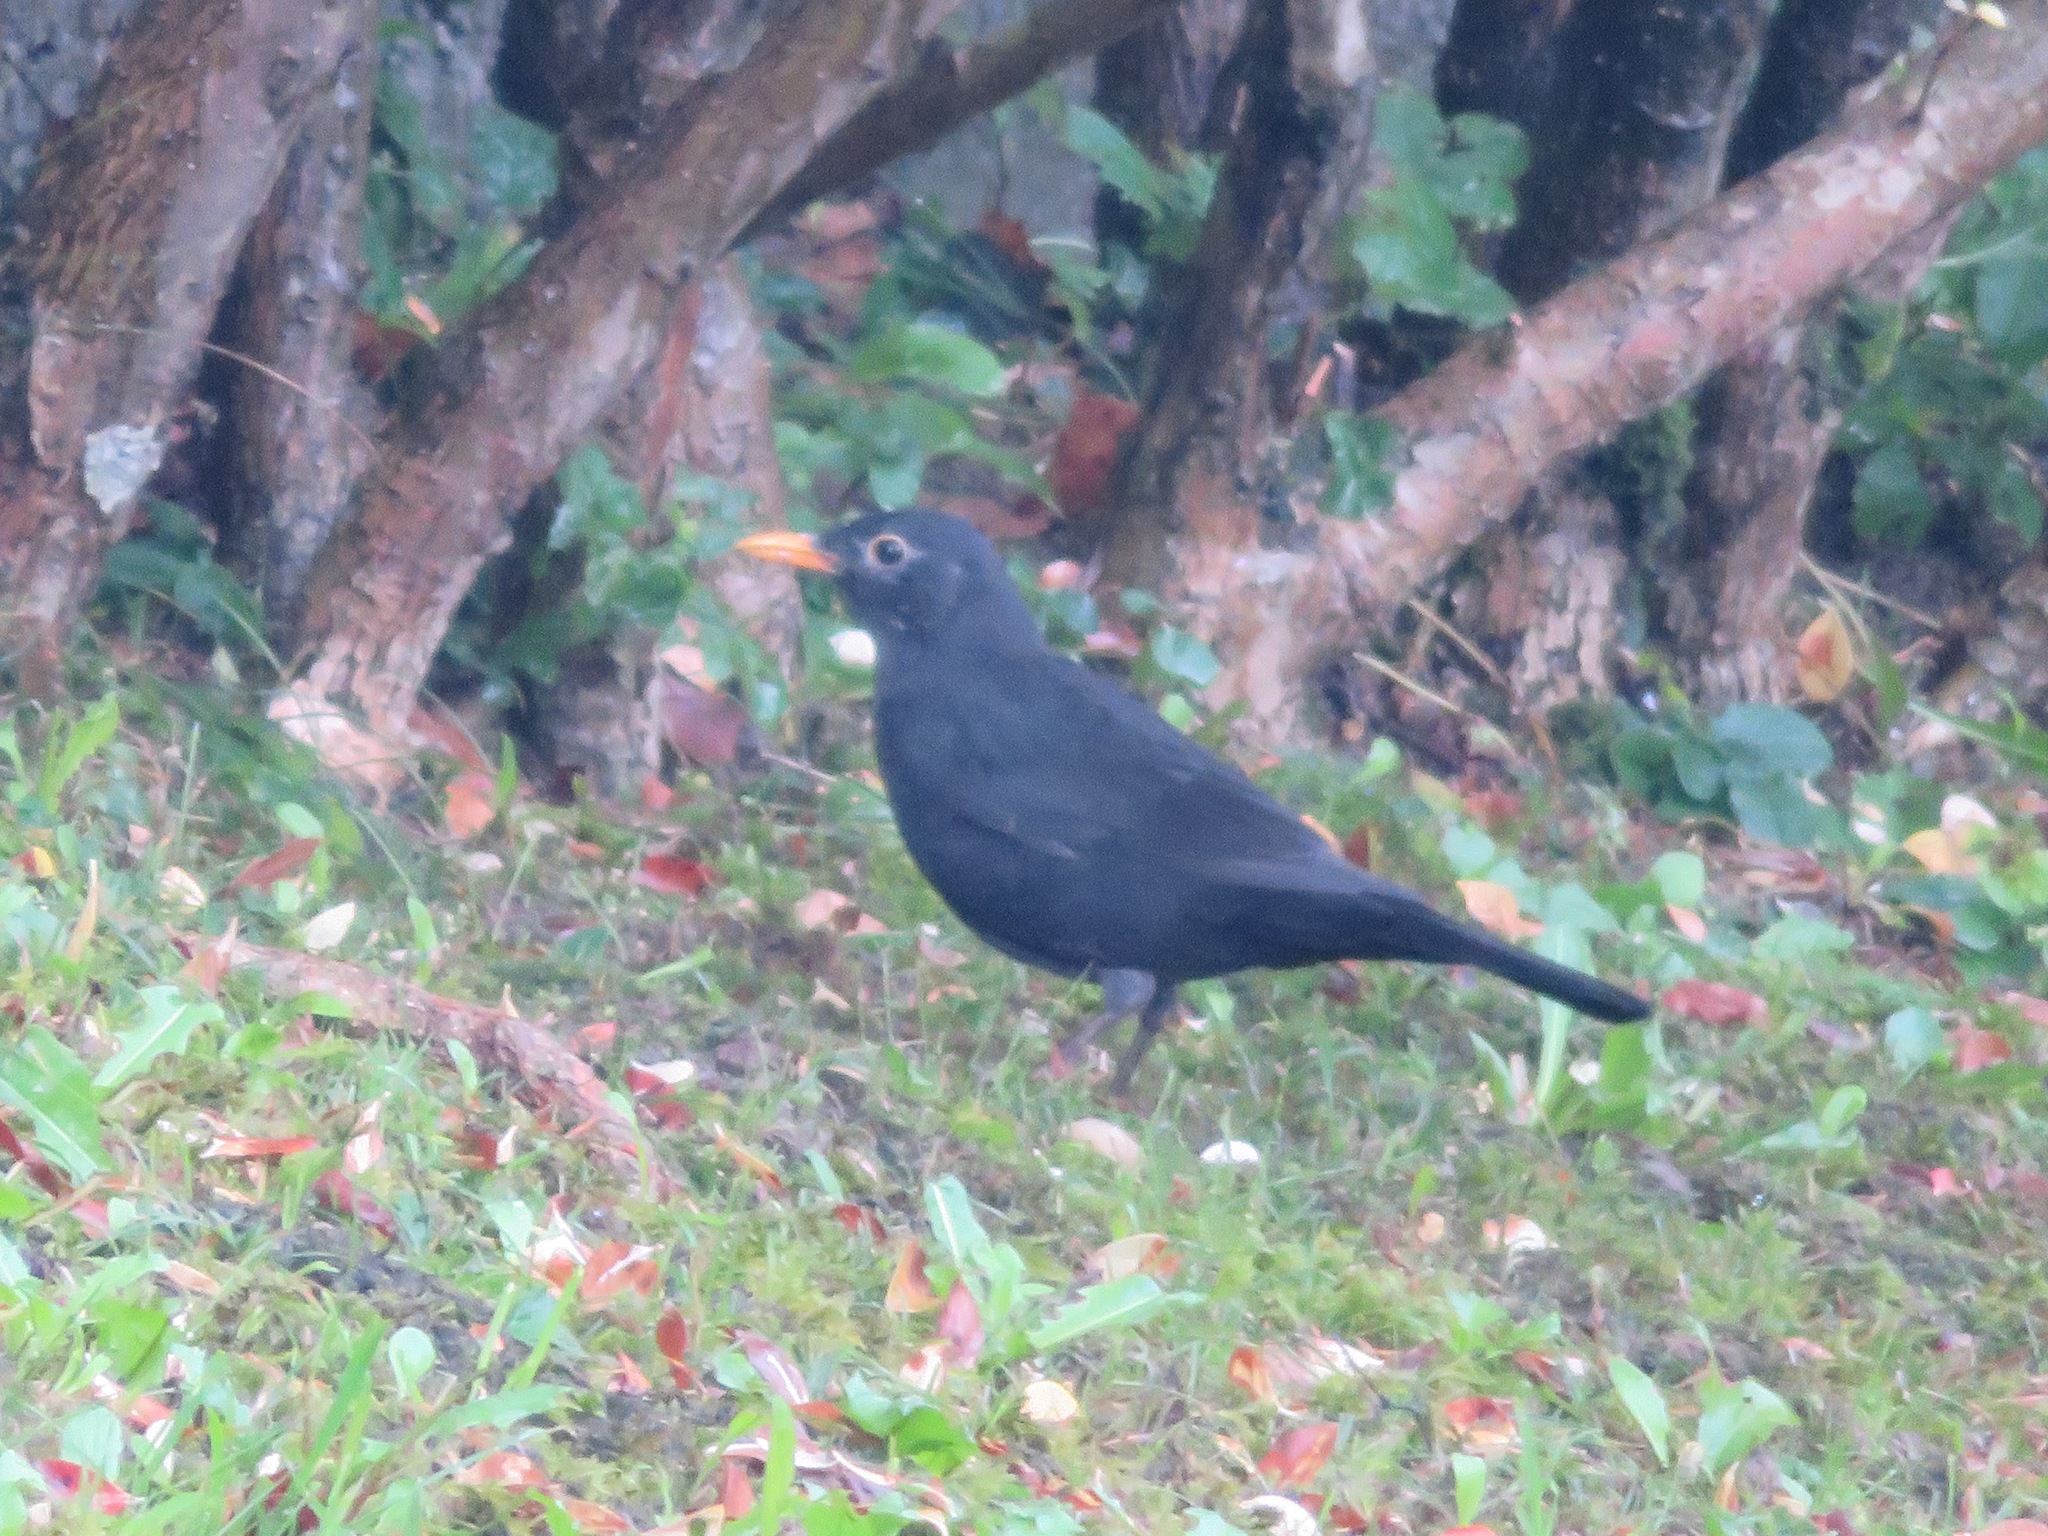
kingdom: Animalia
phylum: Chordata
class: Aves
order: Passeriformes
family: Turdidae
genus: Turdus
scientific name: Turdus merula
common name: Common blackbird
